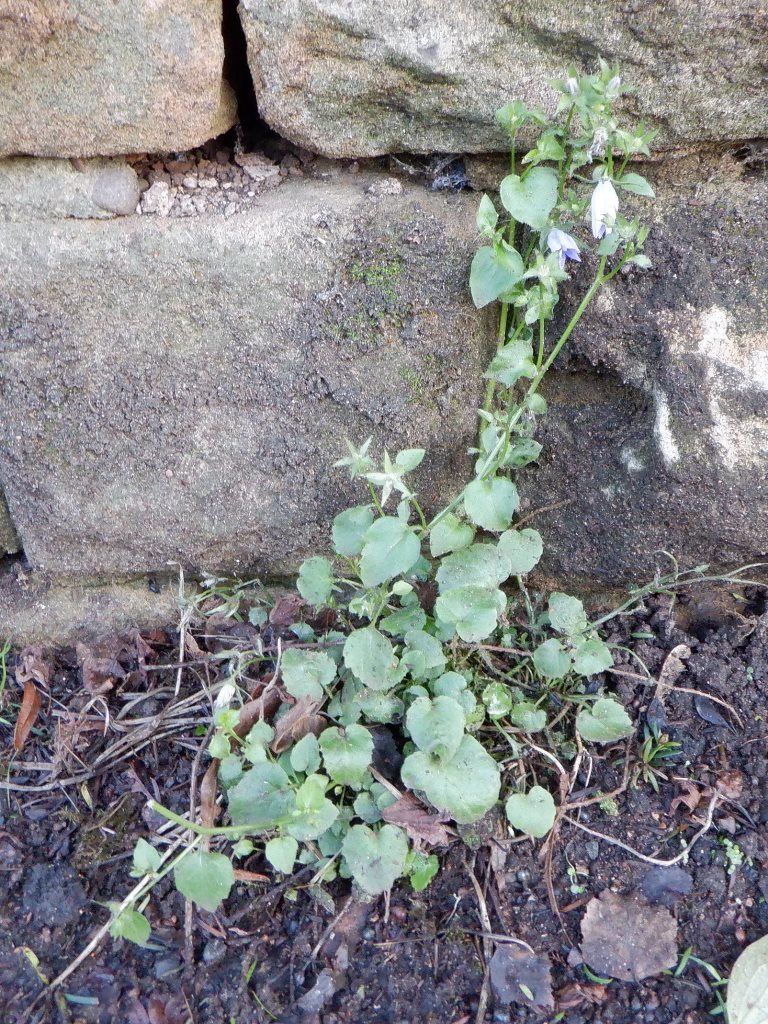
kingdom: Plantae
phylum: Tracheophyta
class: Magnoliopsida
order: Asterales
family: Campanulaceae
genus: Campanula
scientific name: Campanula poscharskyana
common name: Trailing bellflower
